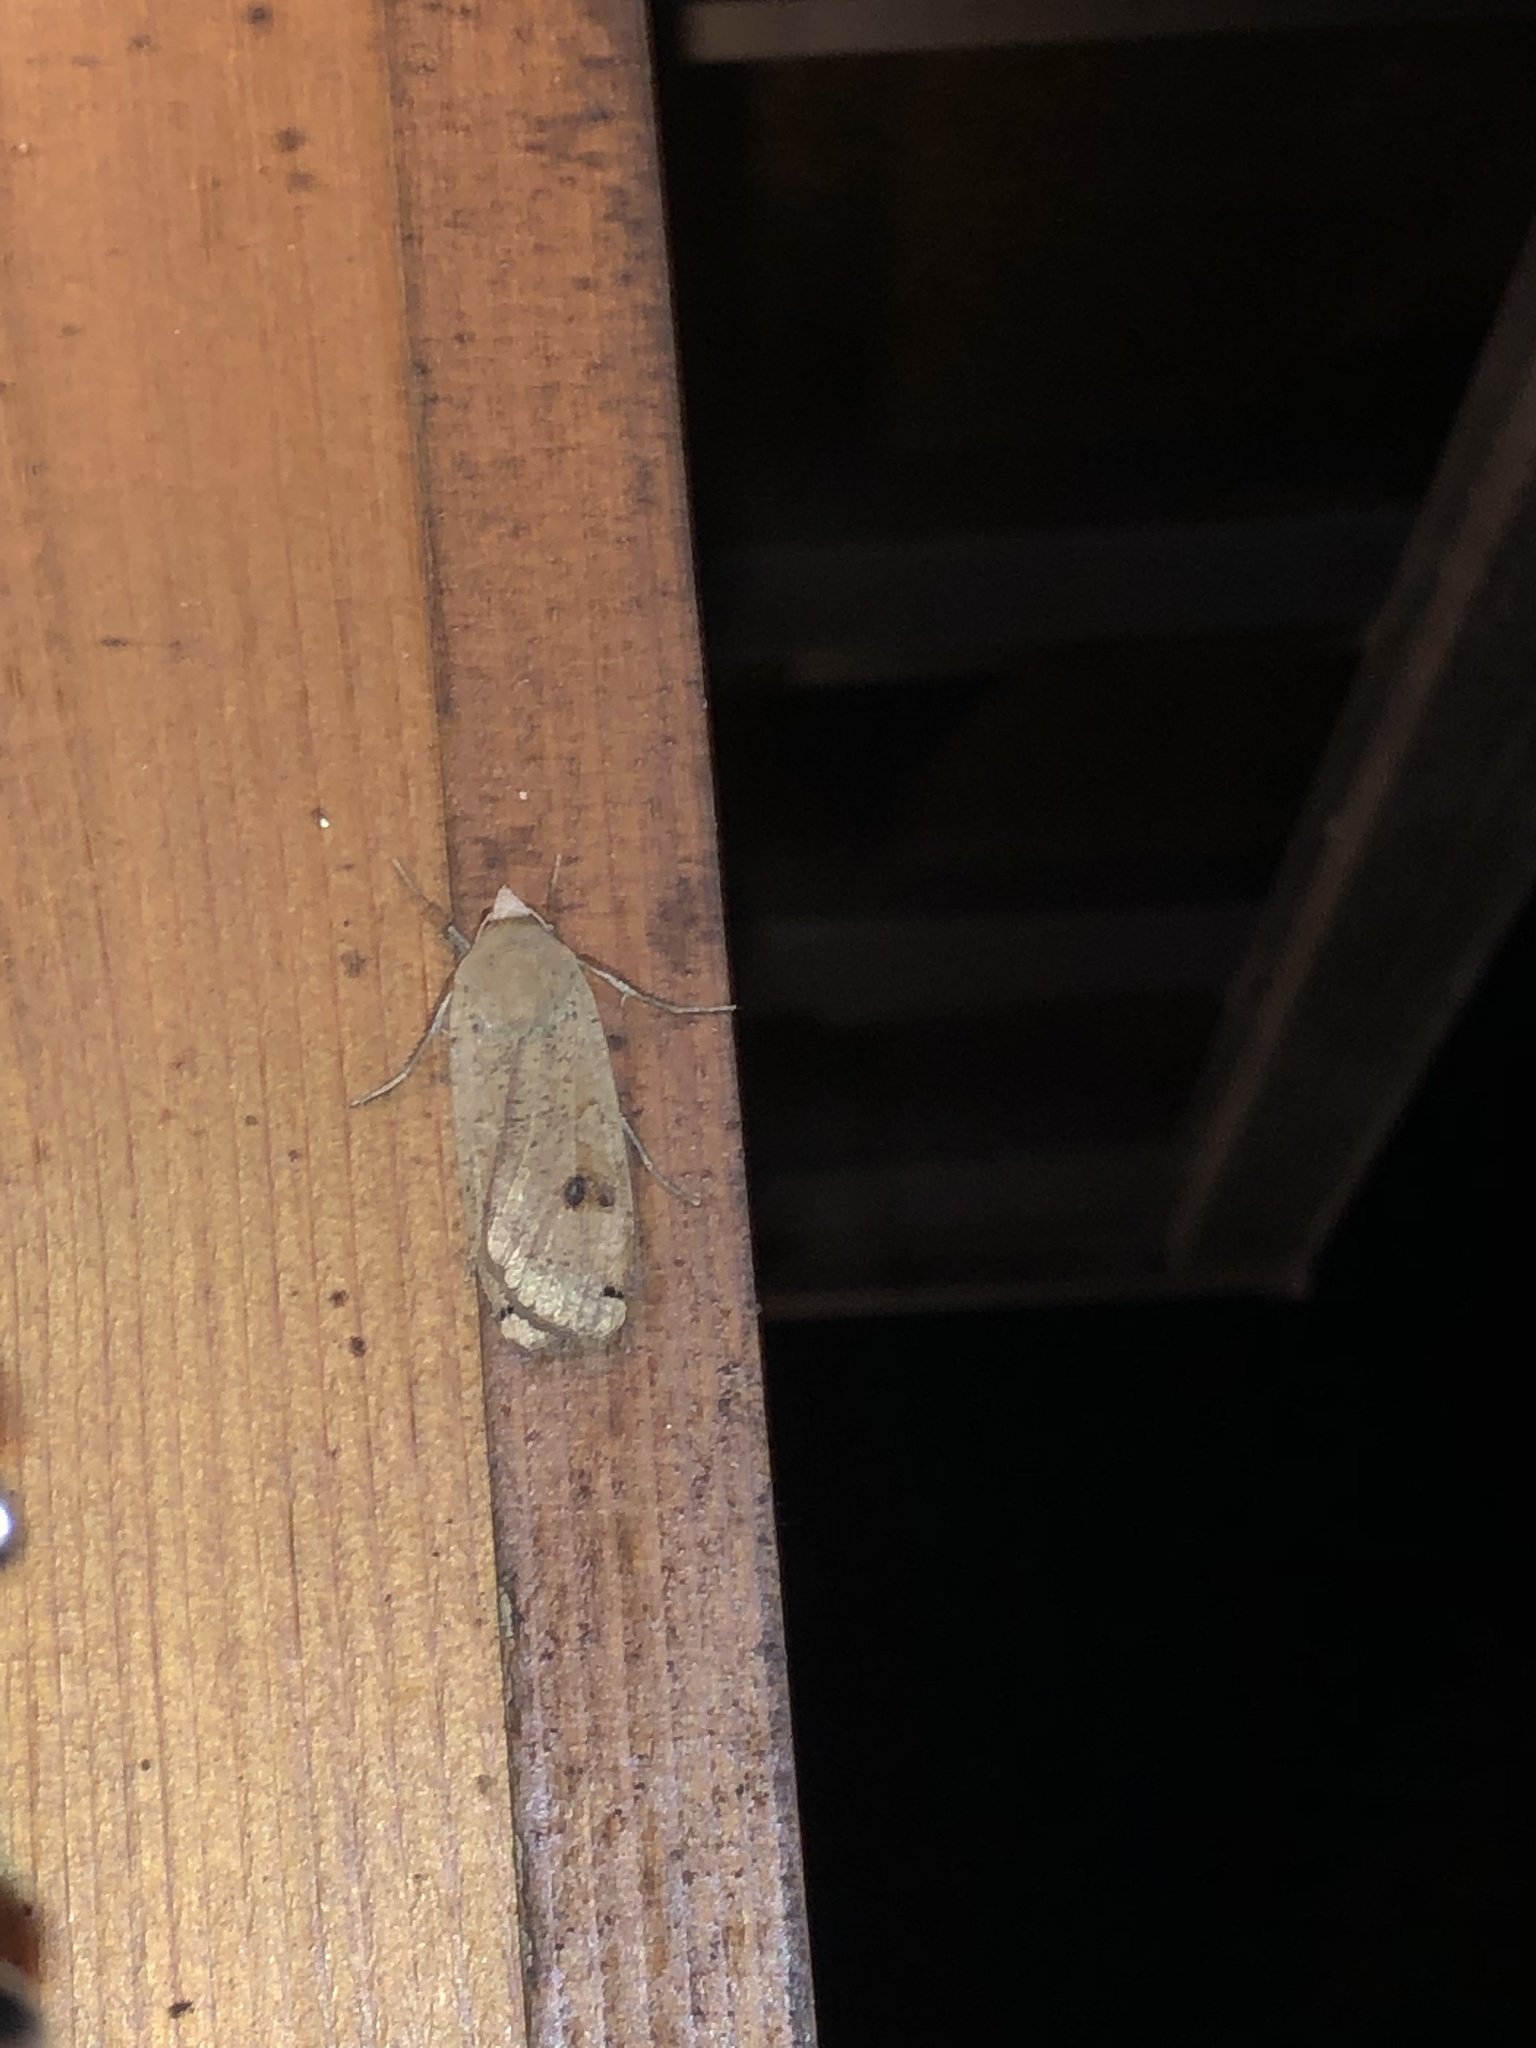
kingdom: Animalia
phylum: Arthropoda
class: Insecta
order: Lepidoptera
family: Noctuidae
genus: Noctua
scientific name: Noctua comes
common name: Lesser yellow underwing
